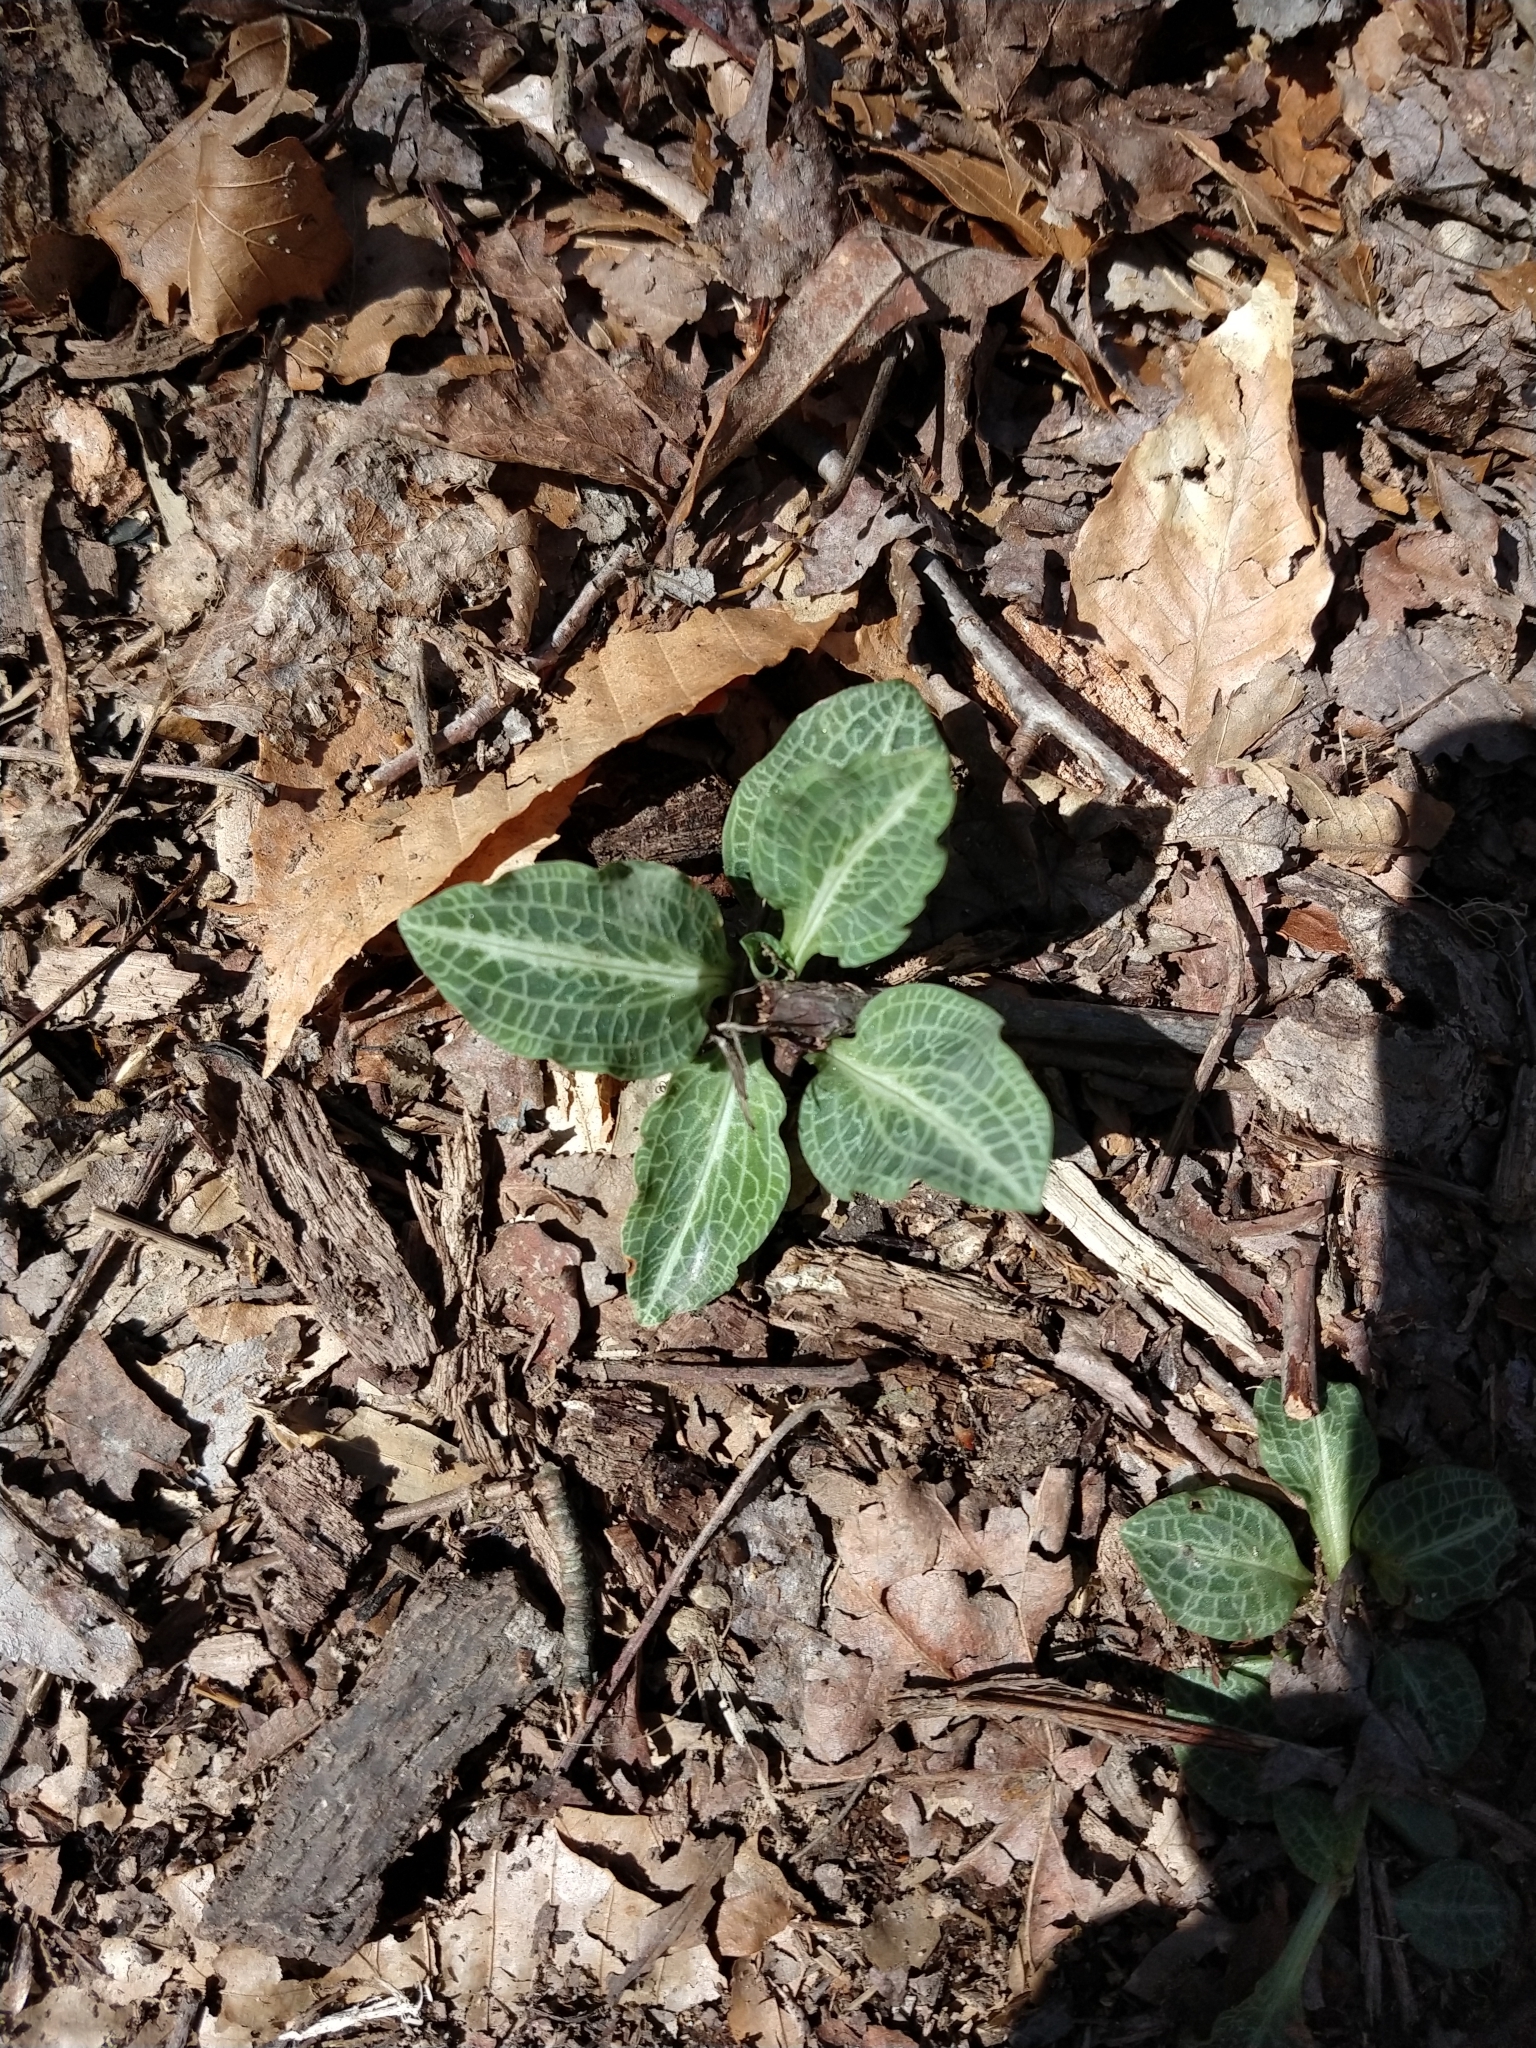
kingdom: Plantae
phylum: Tracheophyta
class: Liliopsida
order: Asparagales
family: Orchidaceae
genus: Goodyera
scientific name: Goodyera pubescens
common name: Downy rattlesnake-plantain
